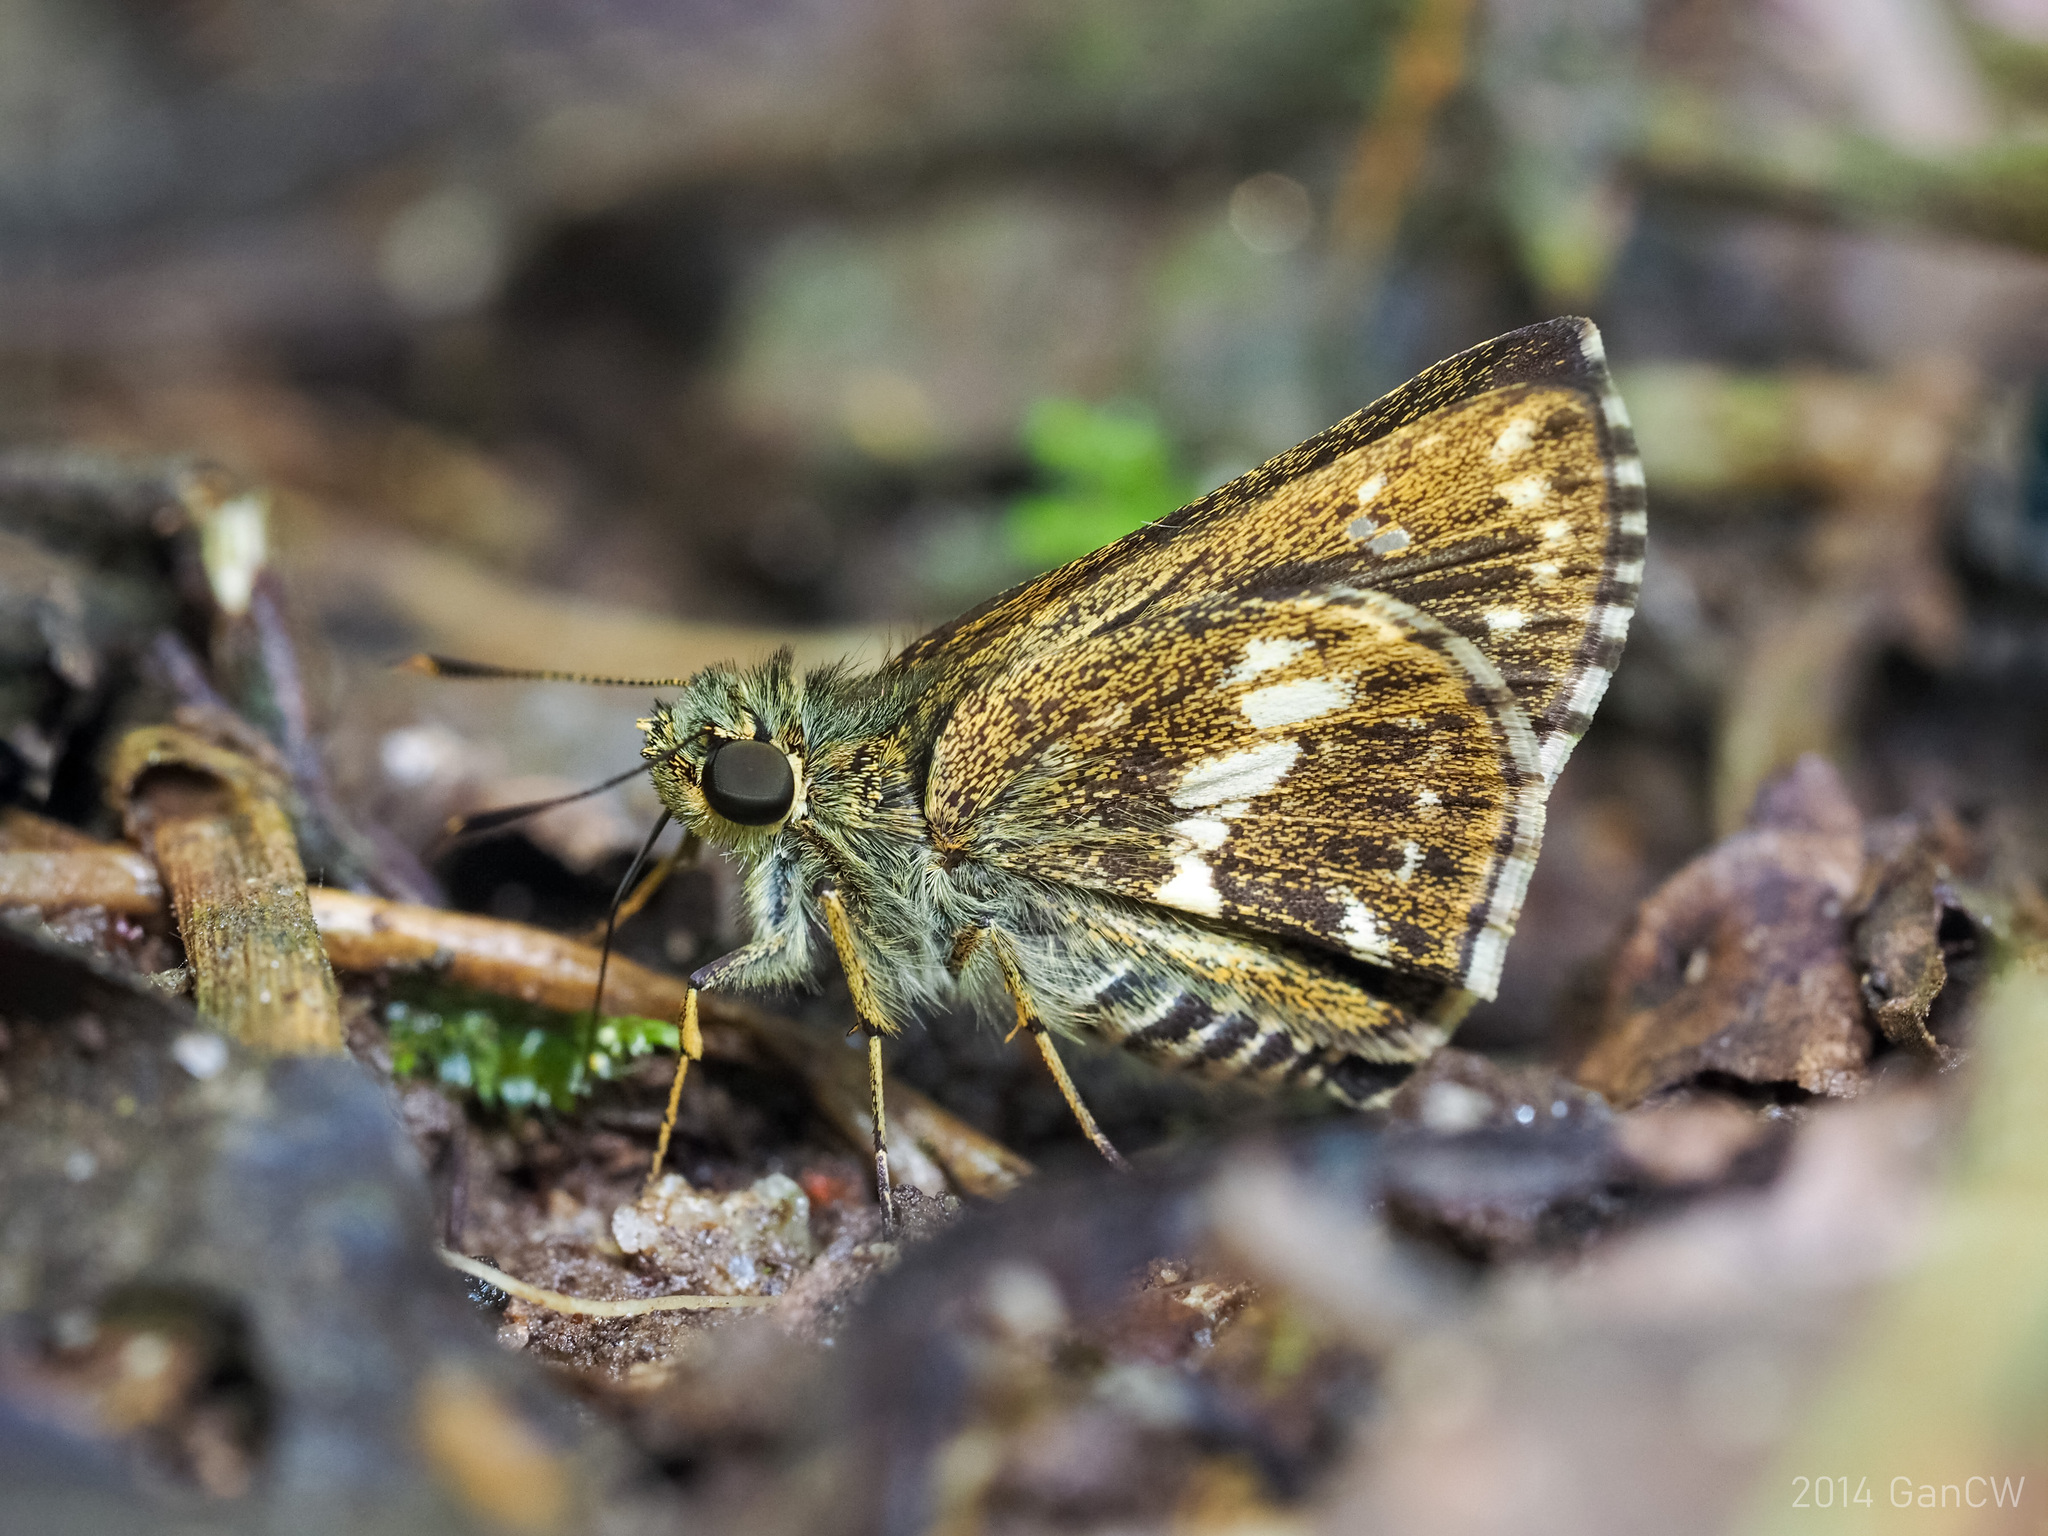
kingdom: Animalia
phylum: Arthropoda
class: Insecta
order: Lepidoptera
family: Hesperiidae
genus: Halpe
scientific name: Halpe porus
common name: Moore's ace
